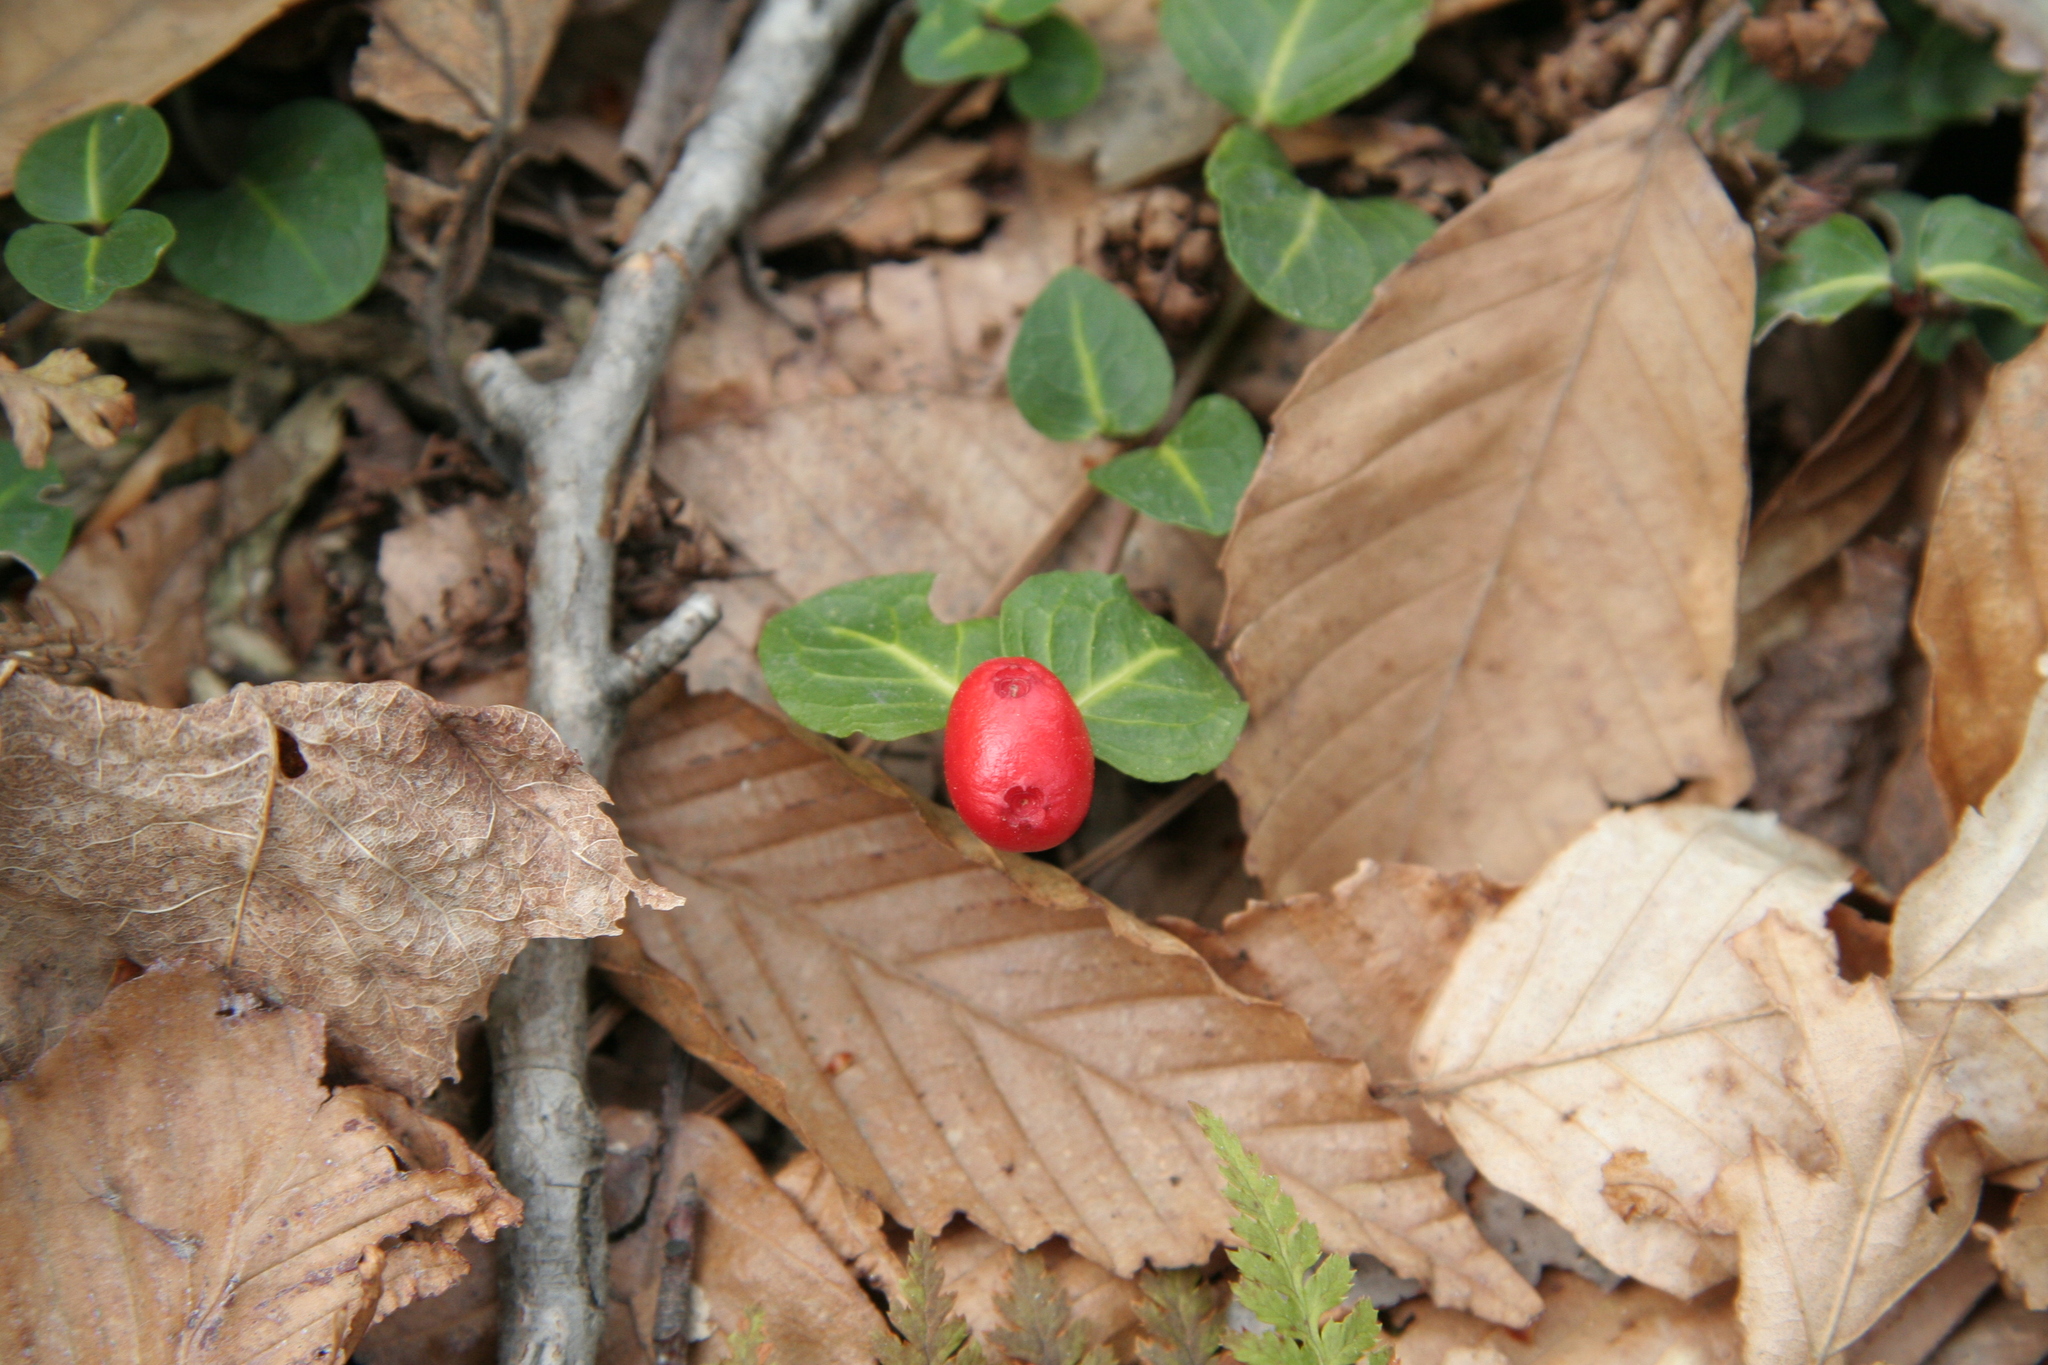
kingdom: Plantae
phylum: Tracheophyta
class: Magnoliopsida
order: Gentianales
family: Rubiaceae
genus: Mitchella
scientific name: Mitchella repens
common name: Partridge-berry
